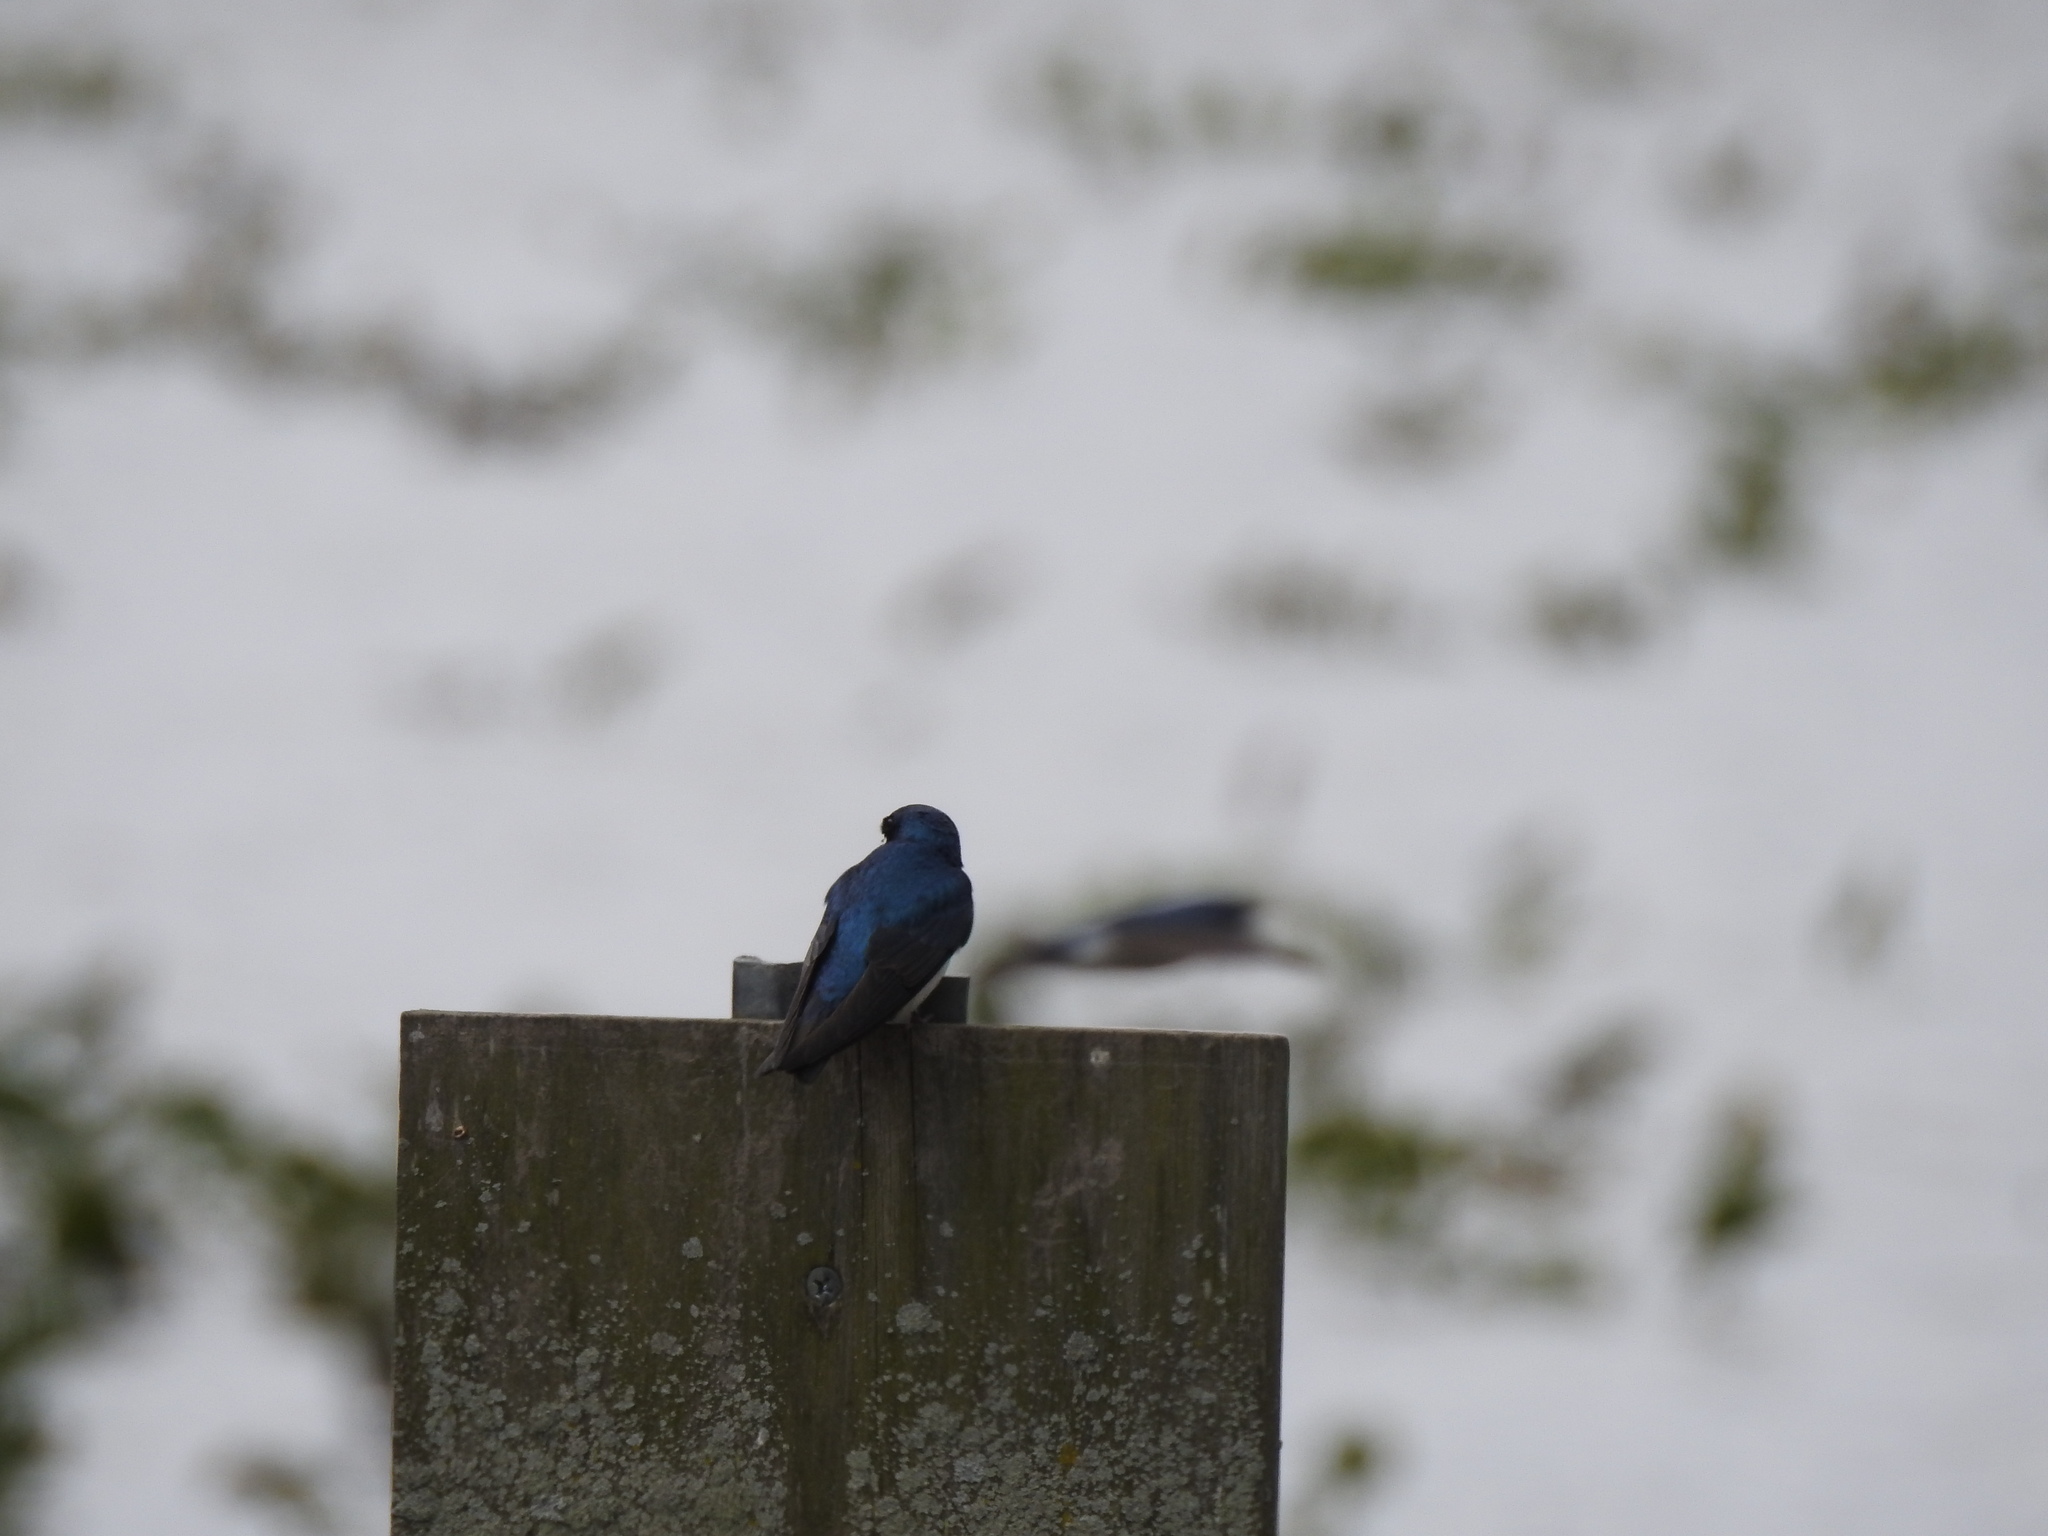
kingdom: Animalia
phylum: Chordata
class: Aves
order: Passeriformes
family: Hirundinidae
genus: Tachycineta
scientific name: Tachycineta bicolor
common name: Tree swallow
